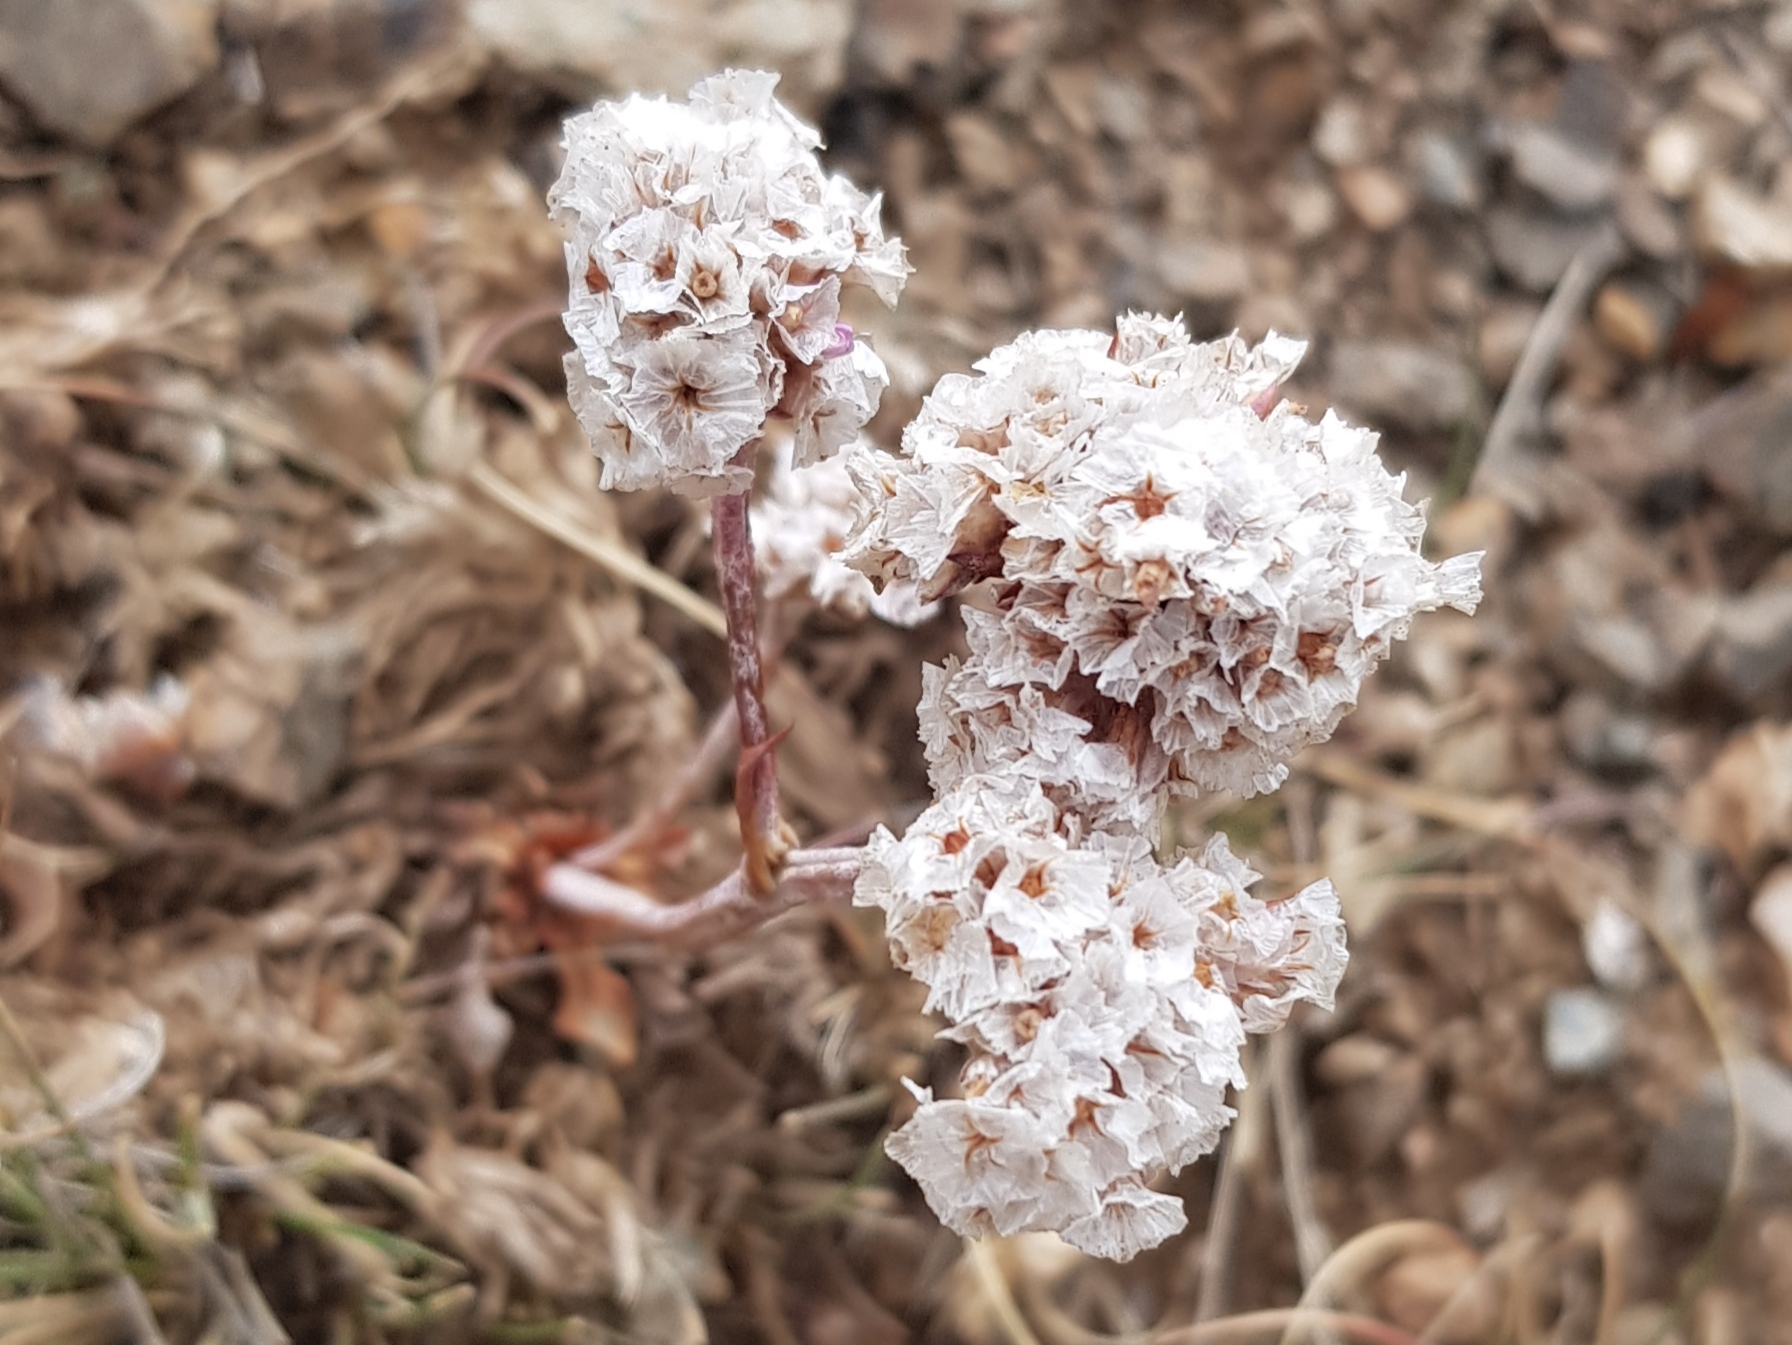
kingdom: Plantae
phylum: Tracheophyta
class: Magnoliopsida
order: Caryophyllales
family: Plumbaginaceae
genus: Goniolimon
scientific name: Goniolimon speciosum
